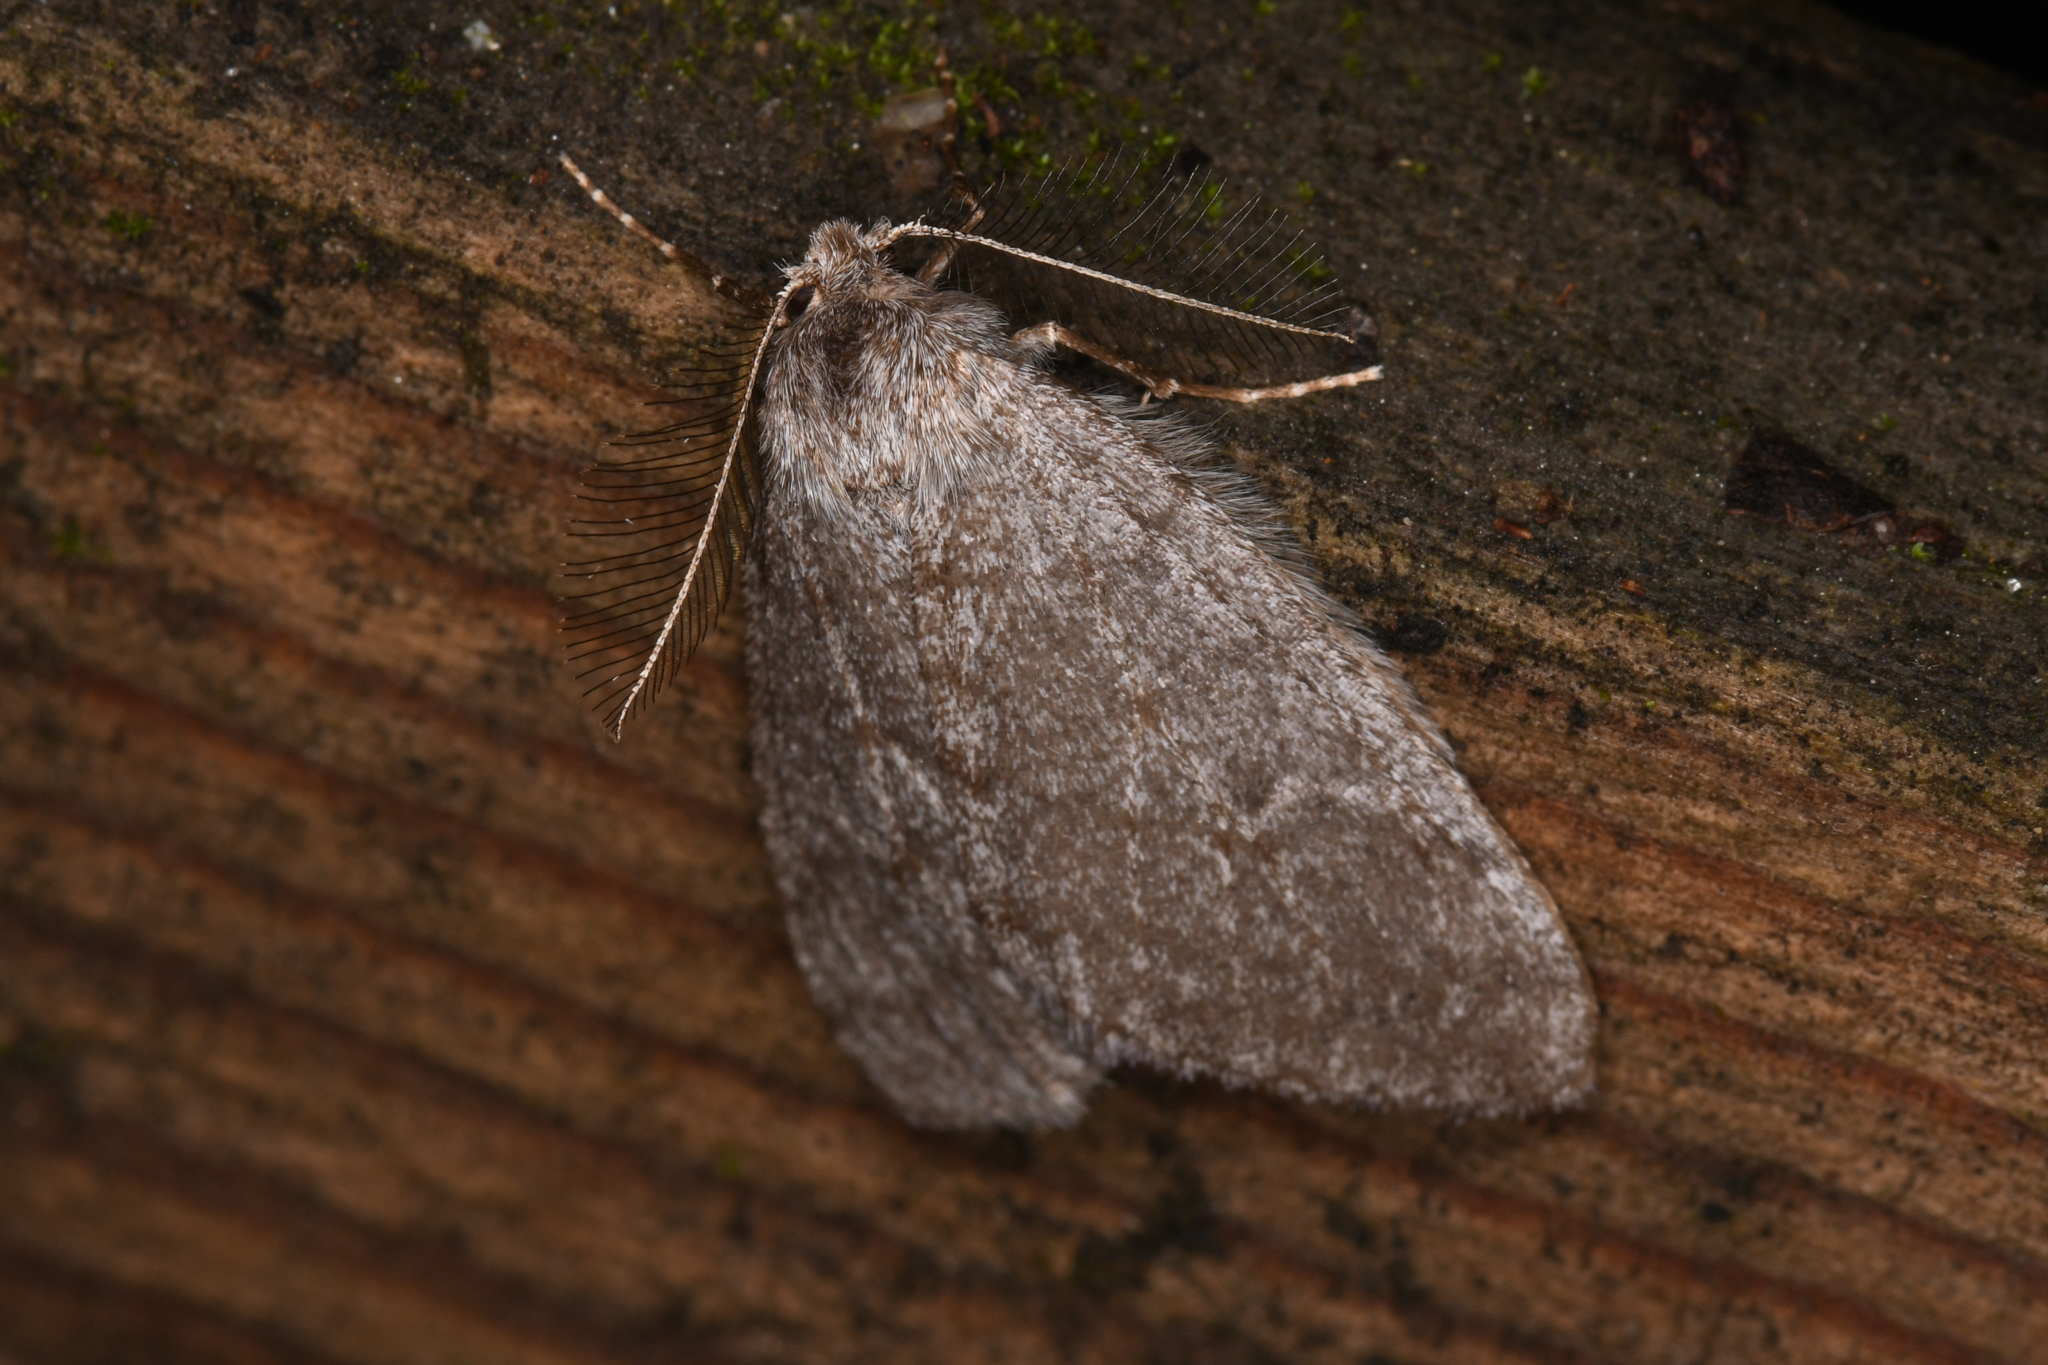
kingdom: Animalia
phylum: Arthropoda
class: Insecta
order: Lepidoptera
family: Geometridae
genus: Phigalia
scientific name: Phigalia plumogeraria
